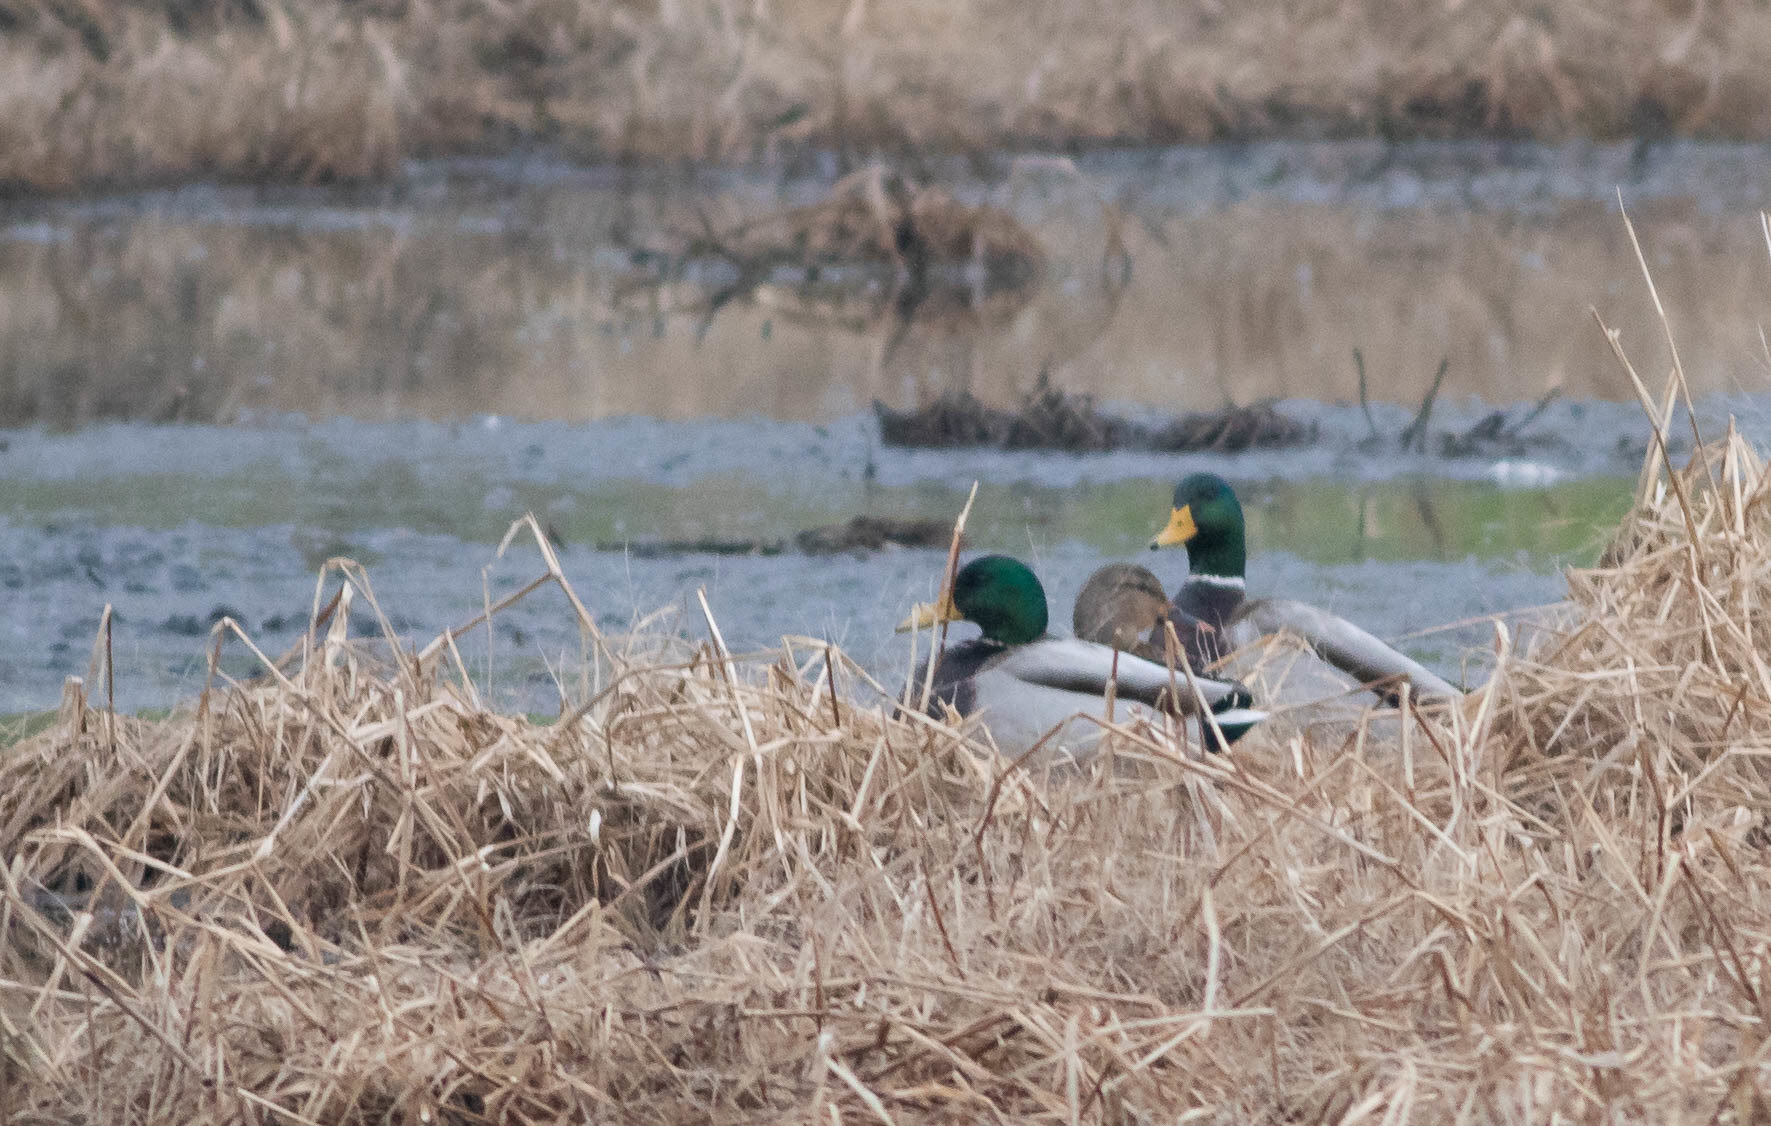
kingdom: Animalia
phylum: Chordata
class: Aves
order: Anseriformes
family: Anatidae
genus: Anas
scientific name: Anas platyrhynchos
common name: Mallard
